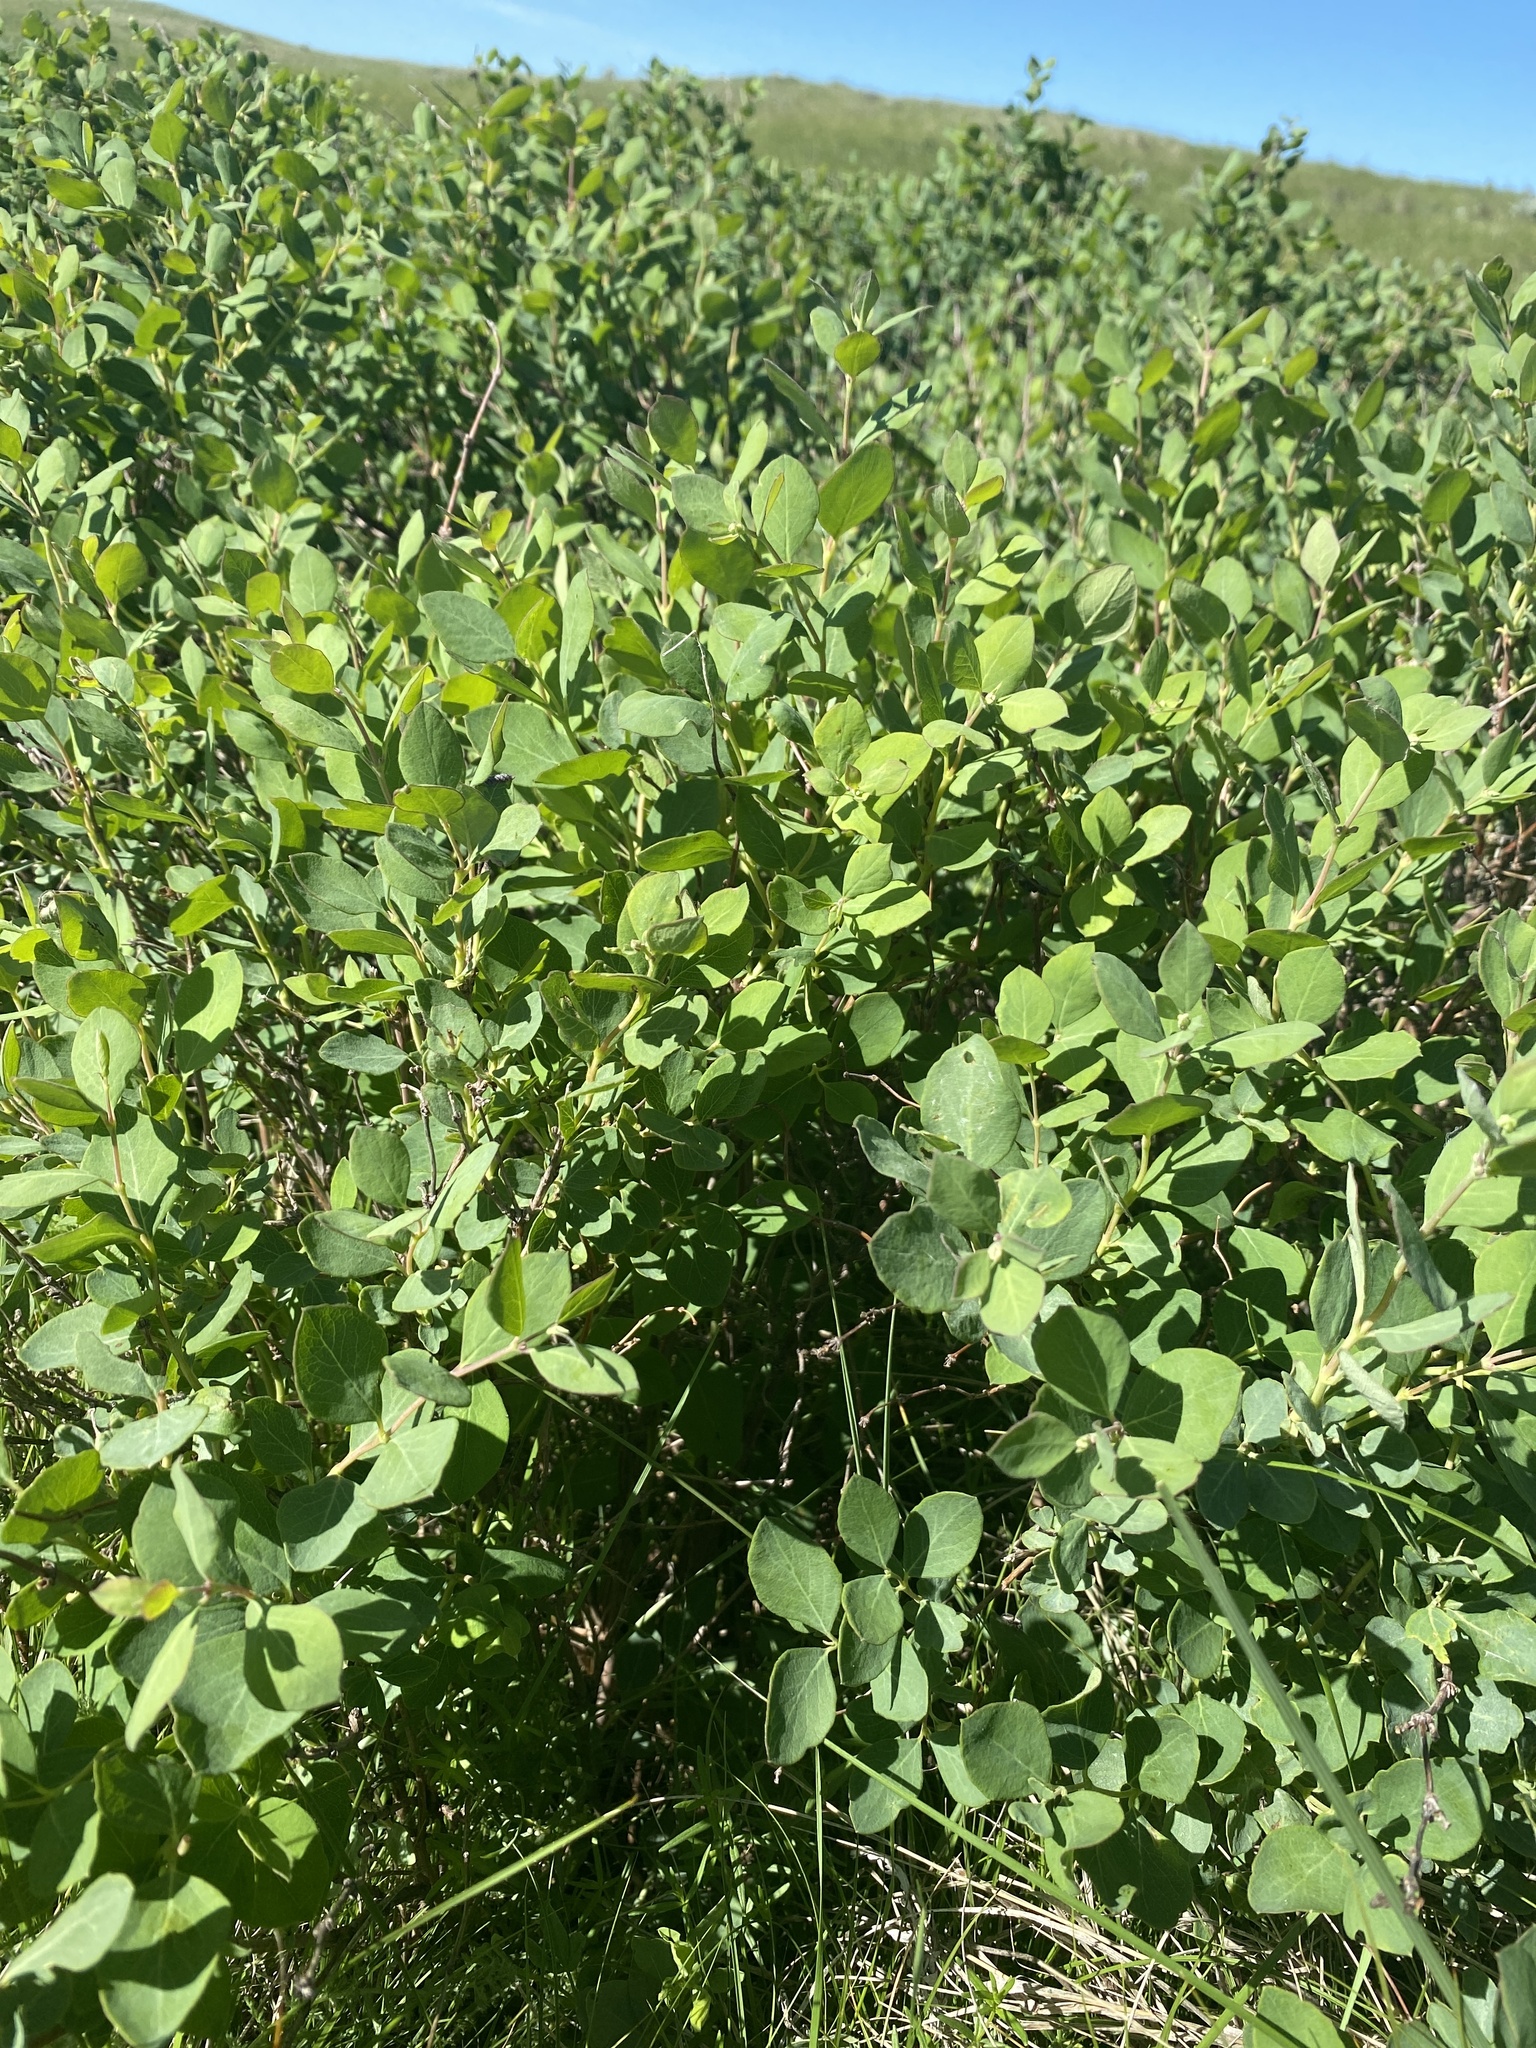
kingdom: Plantae
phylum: Tracheophyta
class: Magnoliopsida
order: Dipsacales
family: Caprifoliaceae
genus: Symphoricarpos
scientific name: Symphoricarpos occidentalis
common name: Wolfberry
